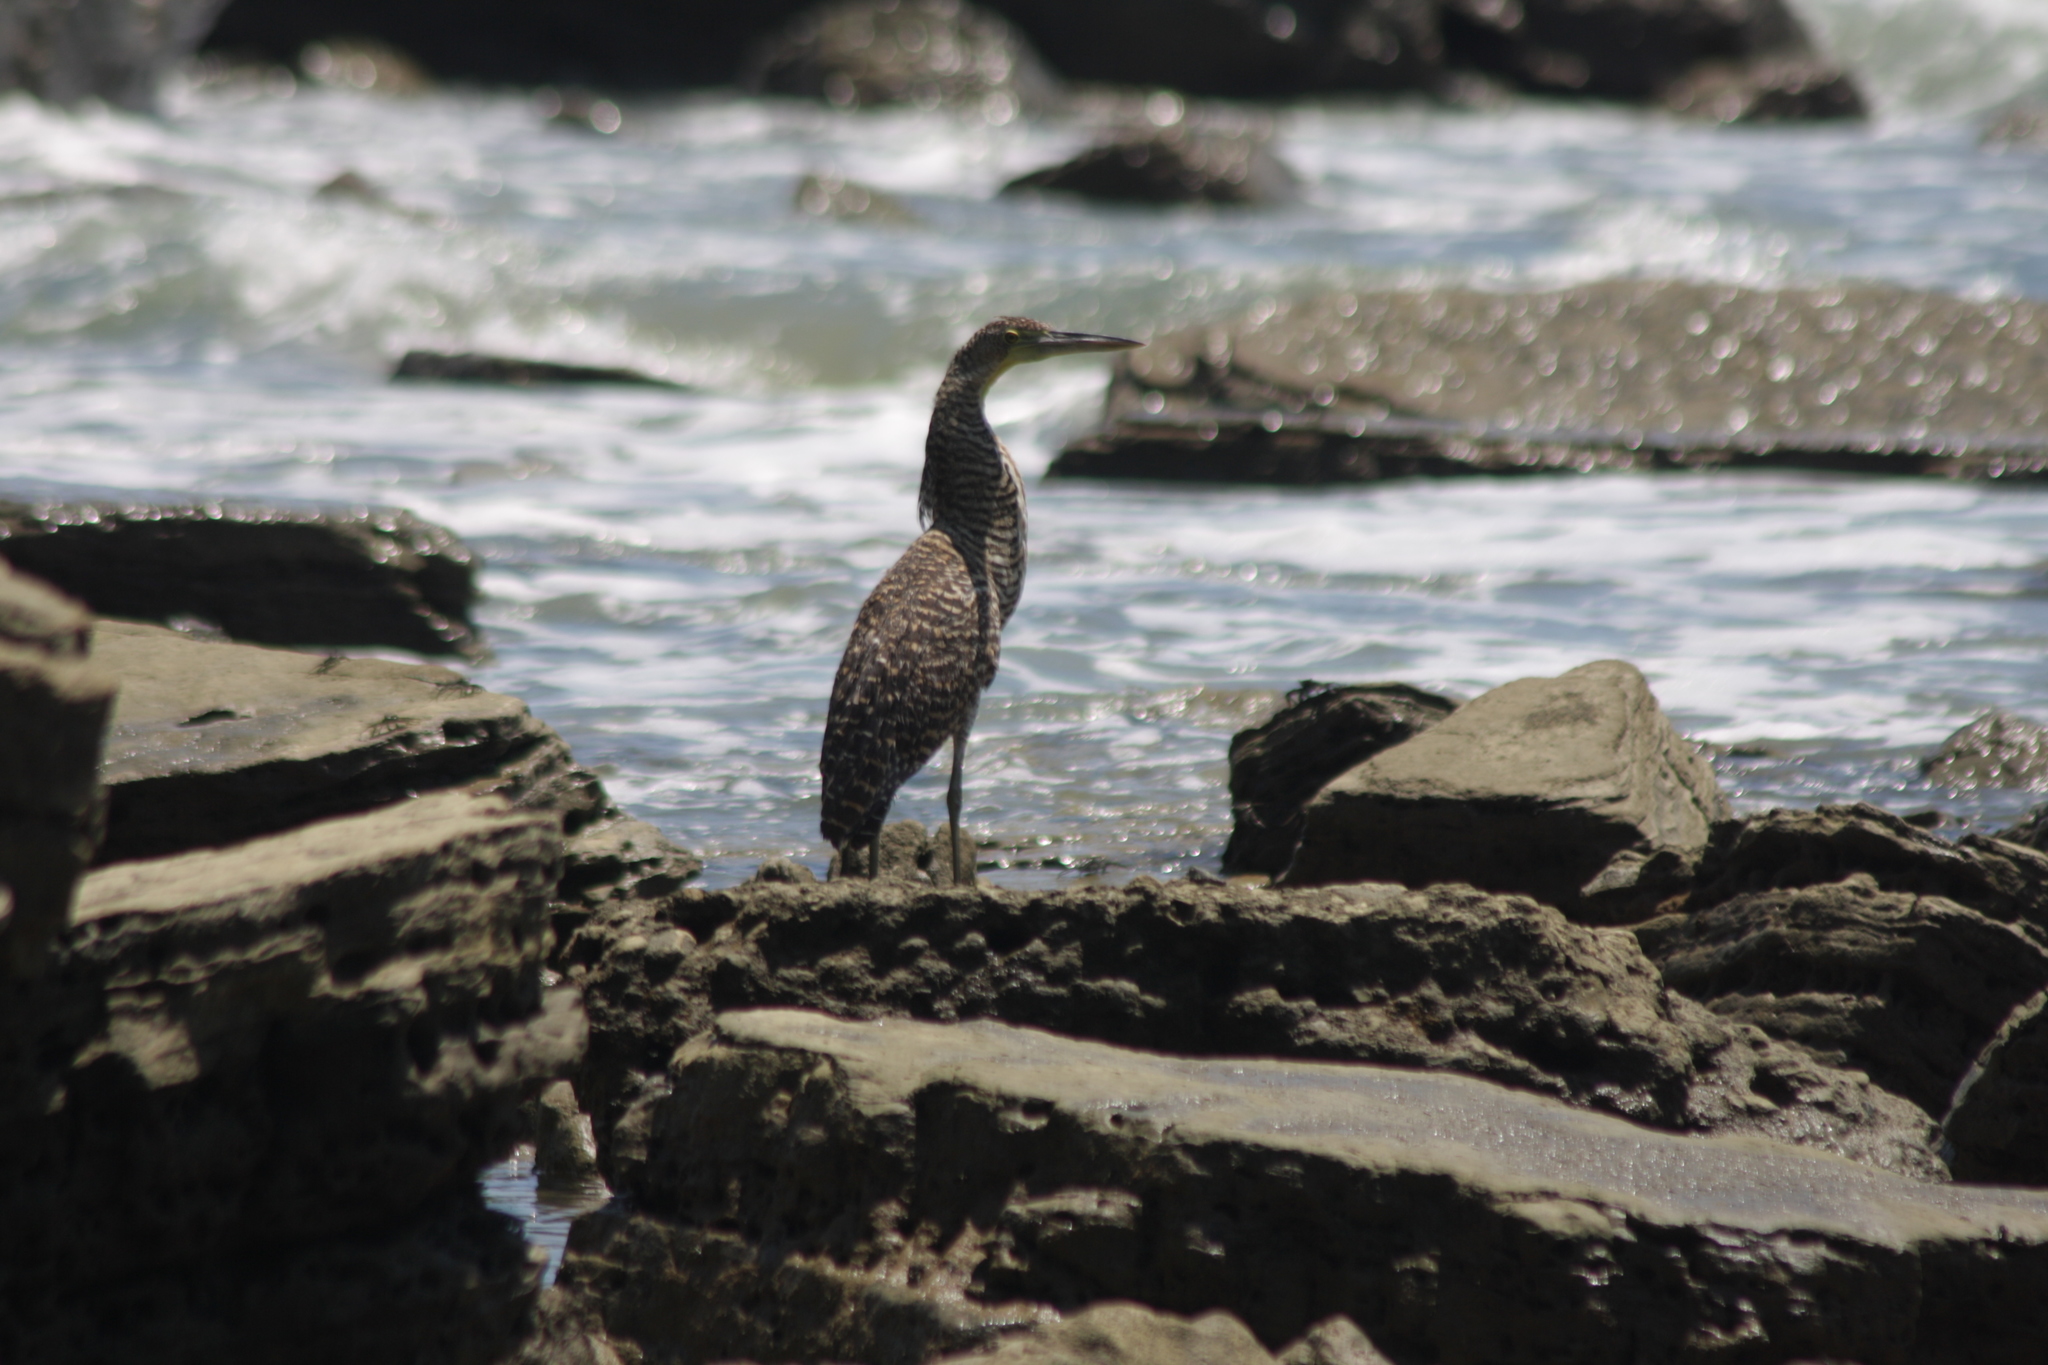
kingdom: Animalia
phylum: Chordata
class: Aves
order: Pelecaniformes
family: Ardeidae
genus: Tigrisoma
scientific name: Tigrisoma mexicanum
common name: Bare-throated tiger-heron
